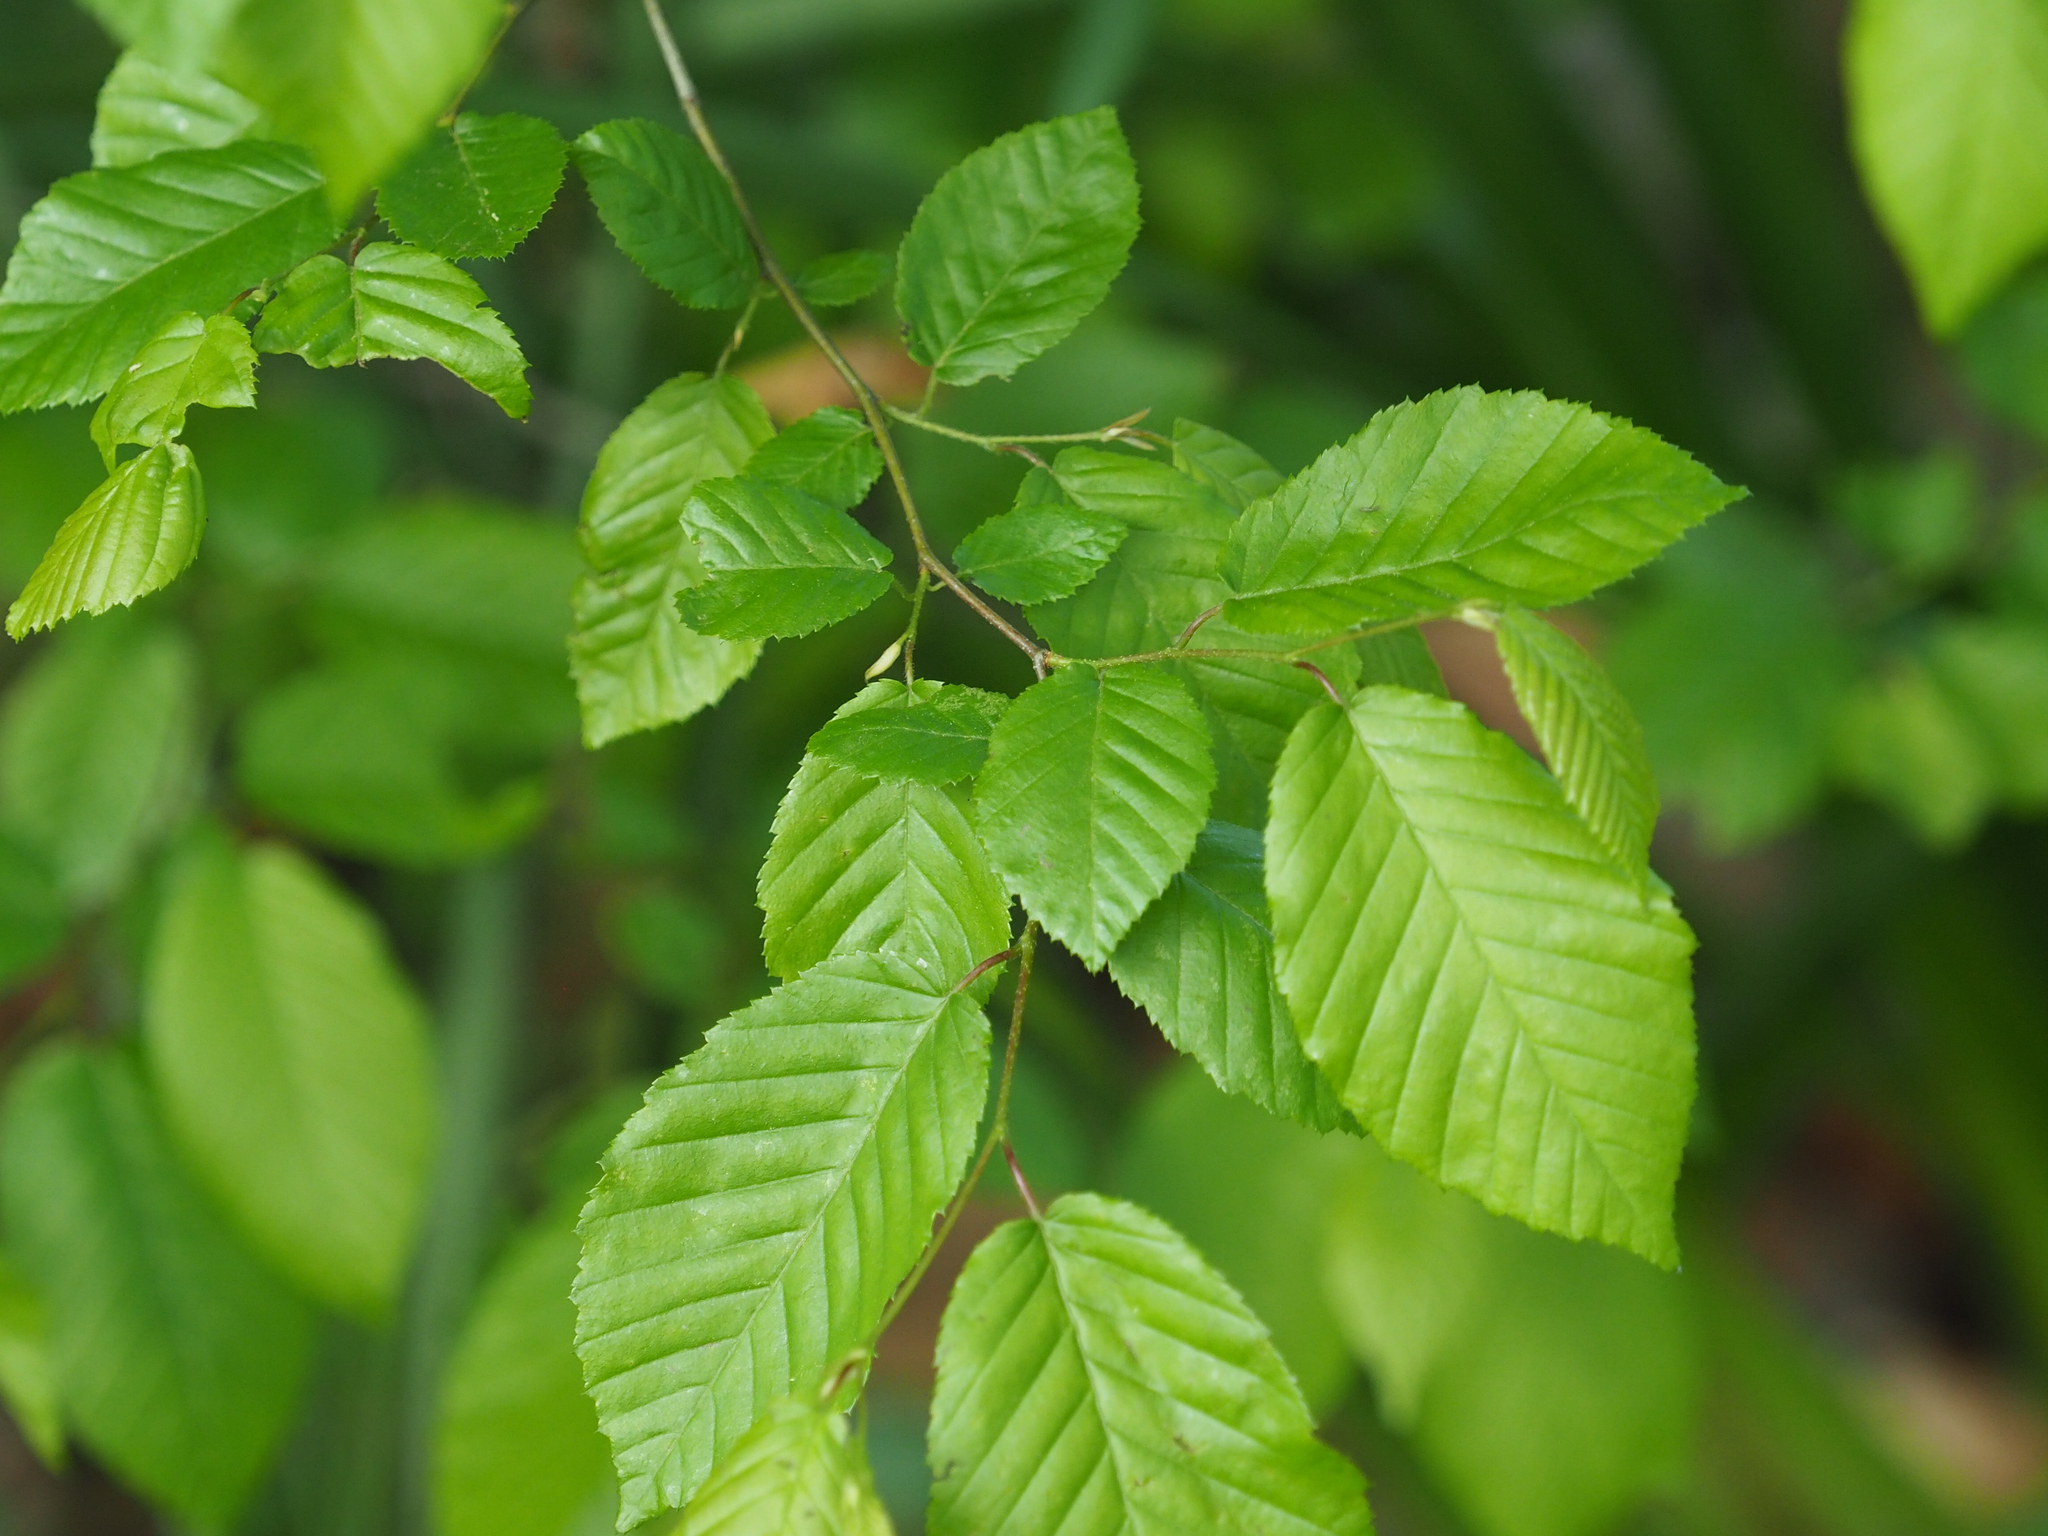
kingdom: Plantae
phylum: Tracheophyta
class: Magnoliopsida
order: Fagales
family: Betulaceae
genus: Carpinus
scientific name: Carpinus caroliniana
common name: American hornbeam
